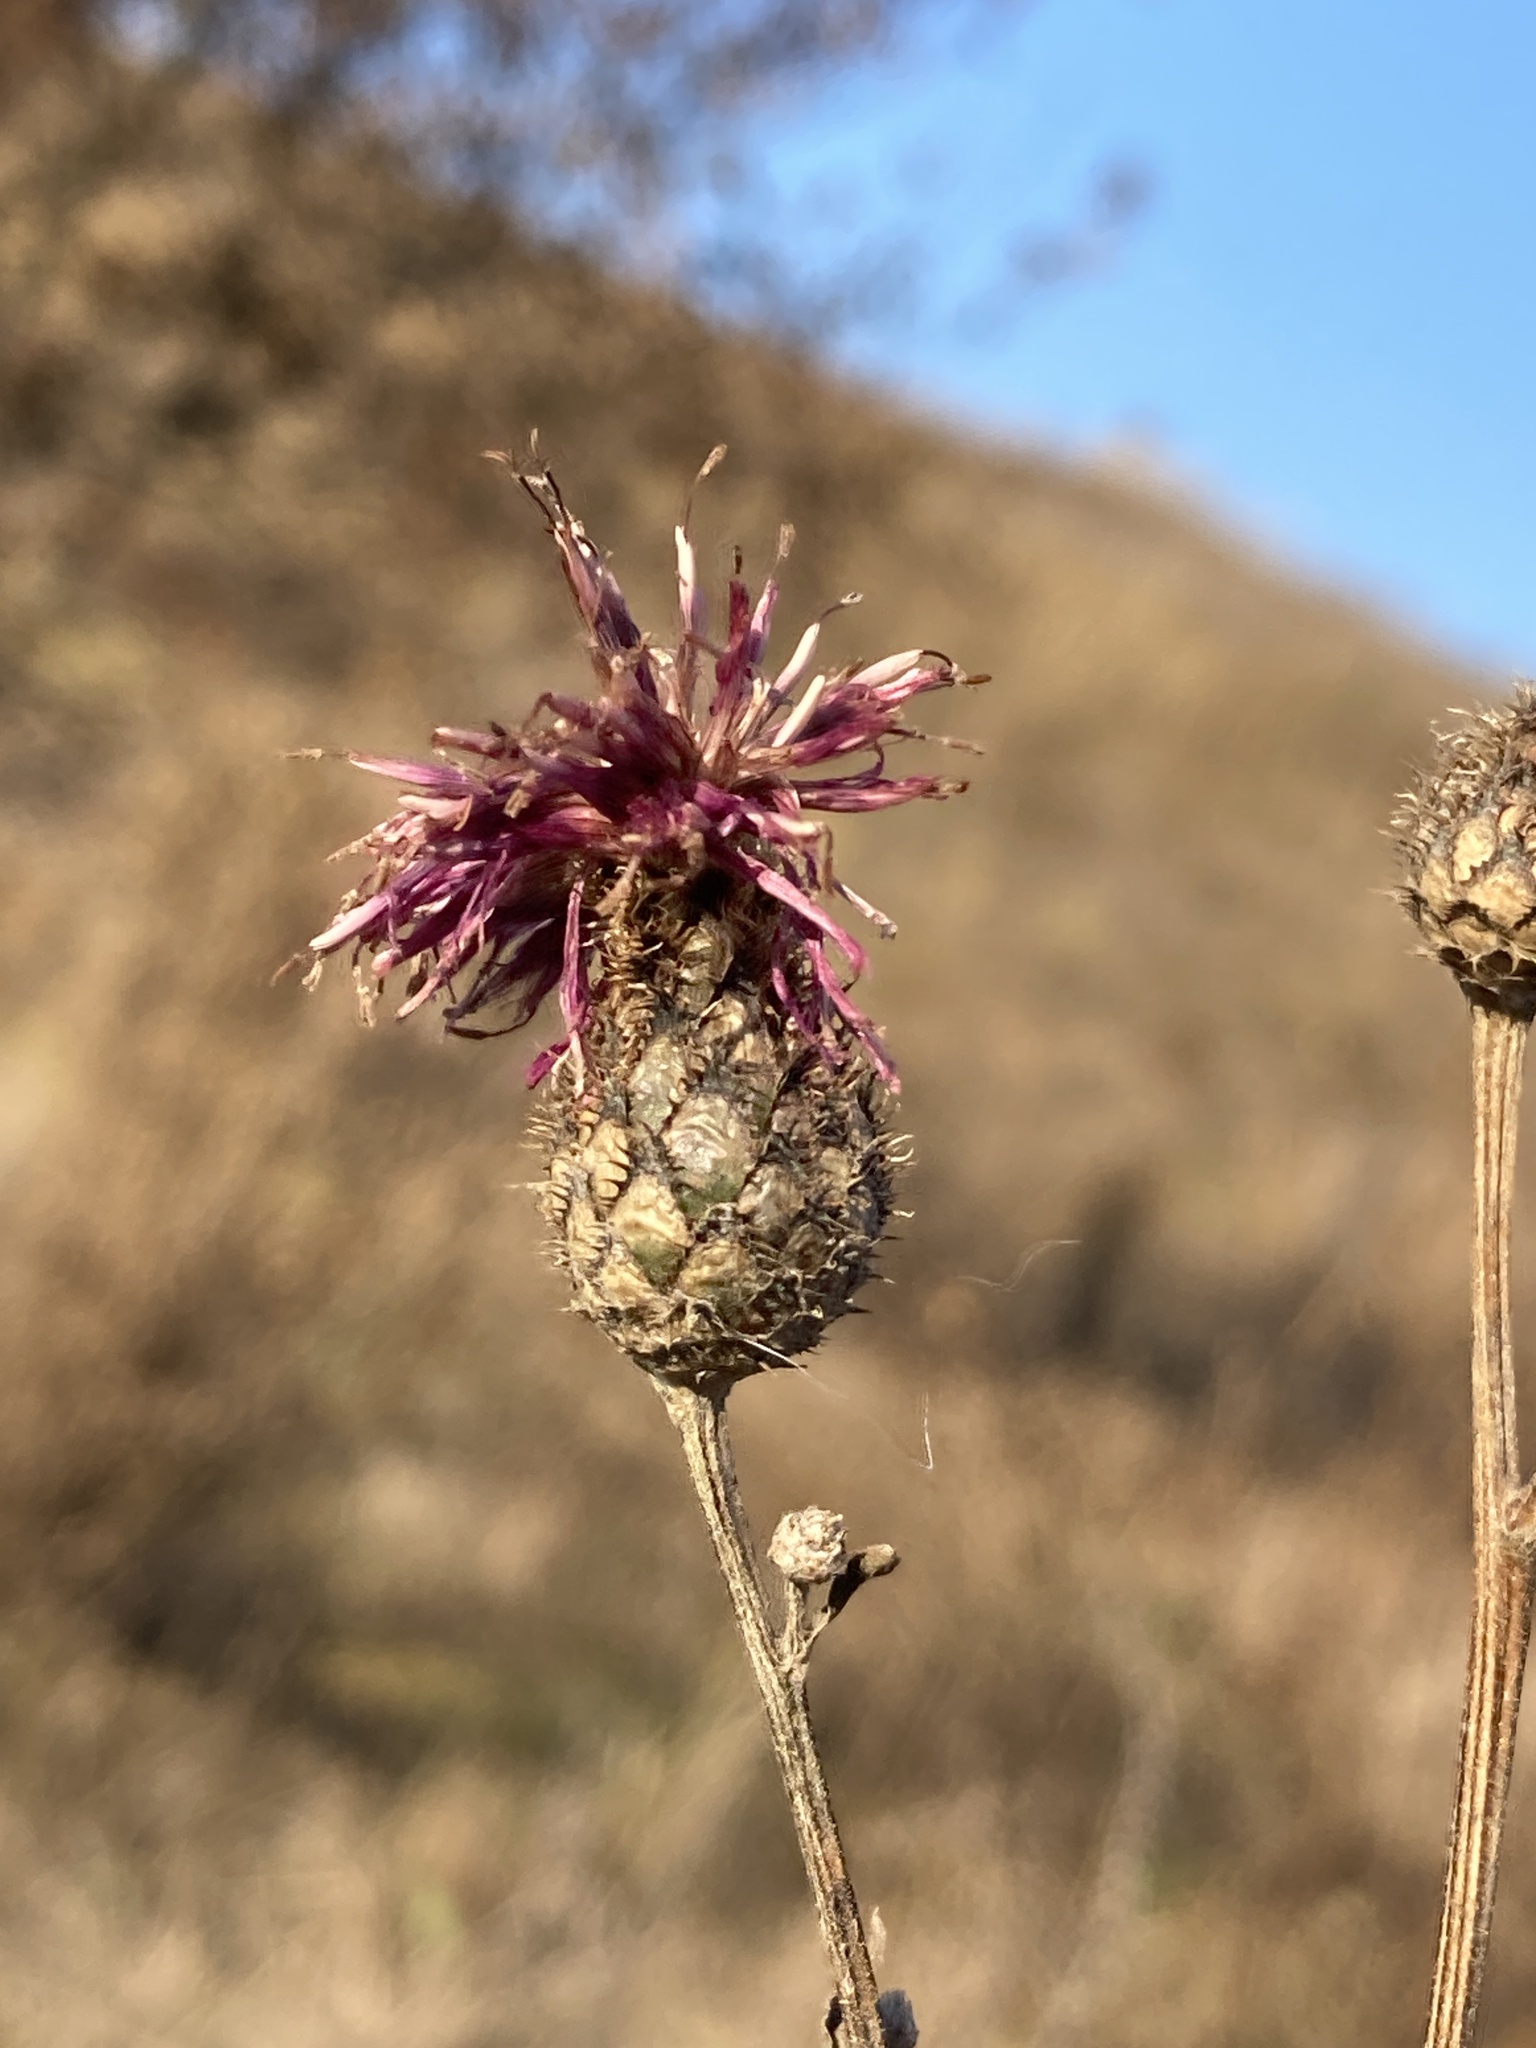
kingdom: Plantae
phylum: Tracheophyta
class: Magnoliopsida
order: Asterales
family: Asteraceae
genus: Centaurea
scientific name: Centaurea scabiosa
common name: Greater knapweed
